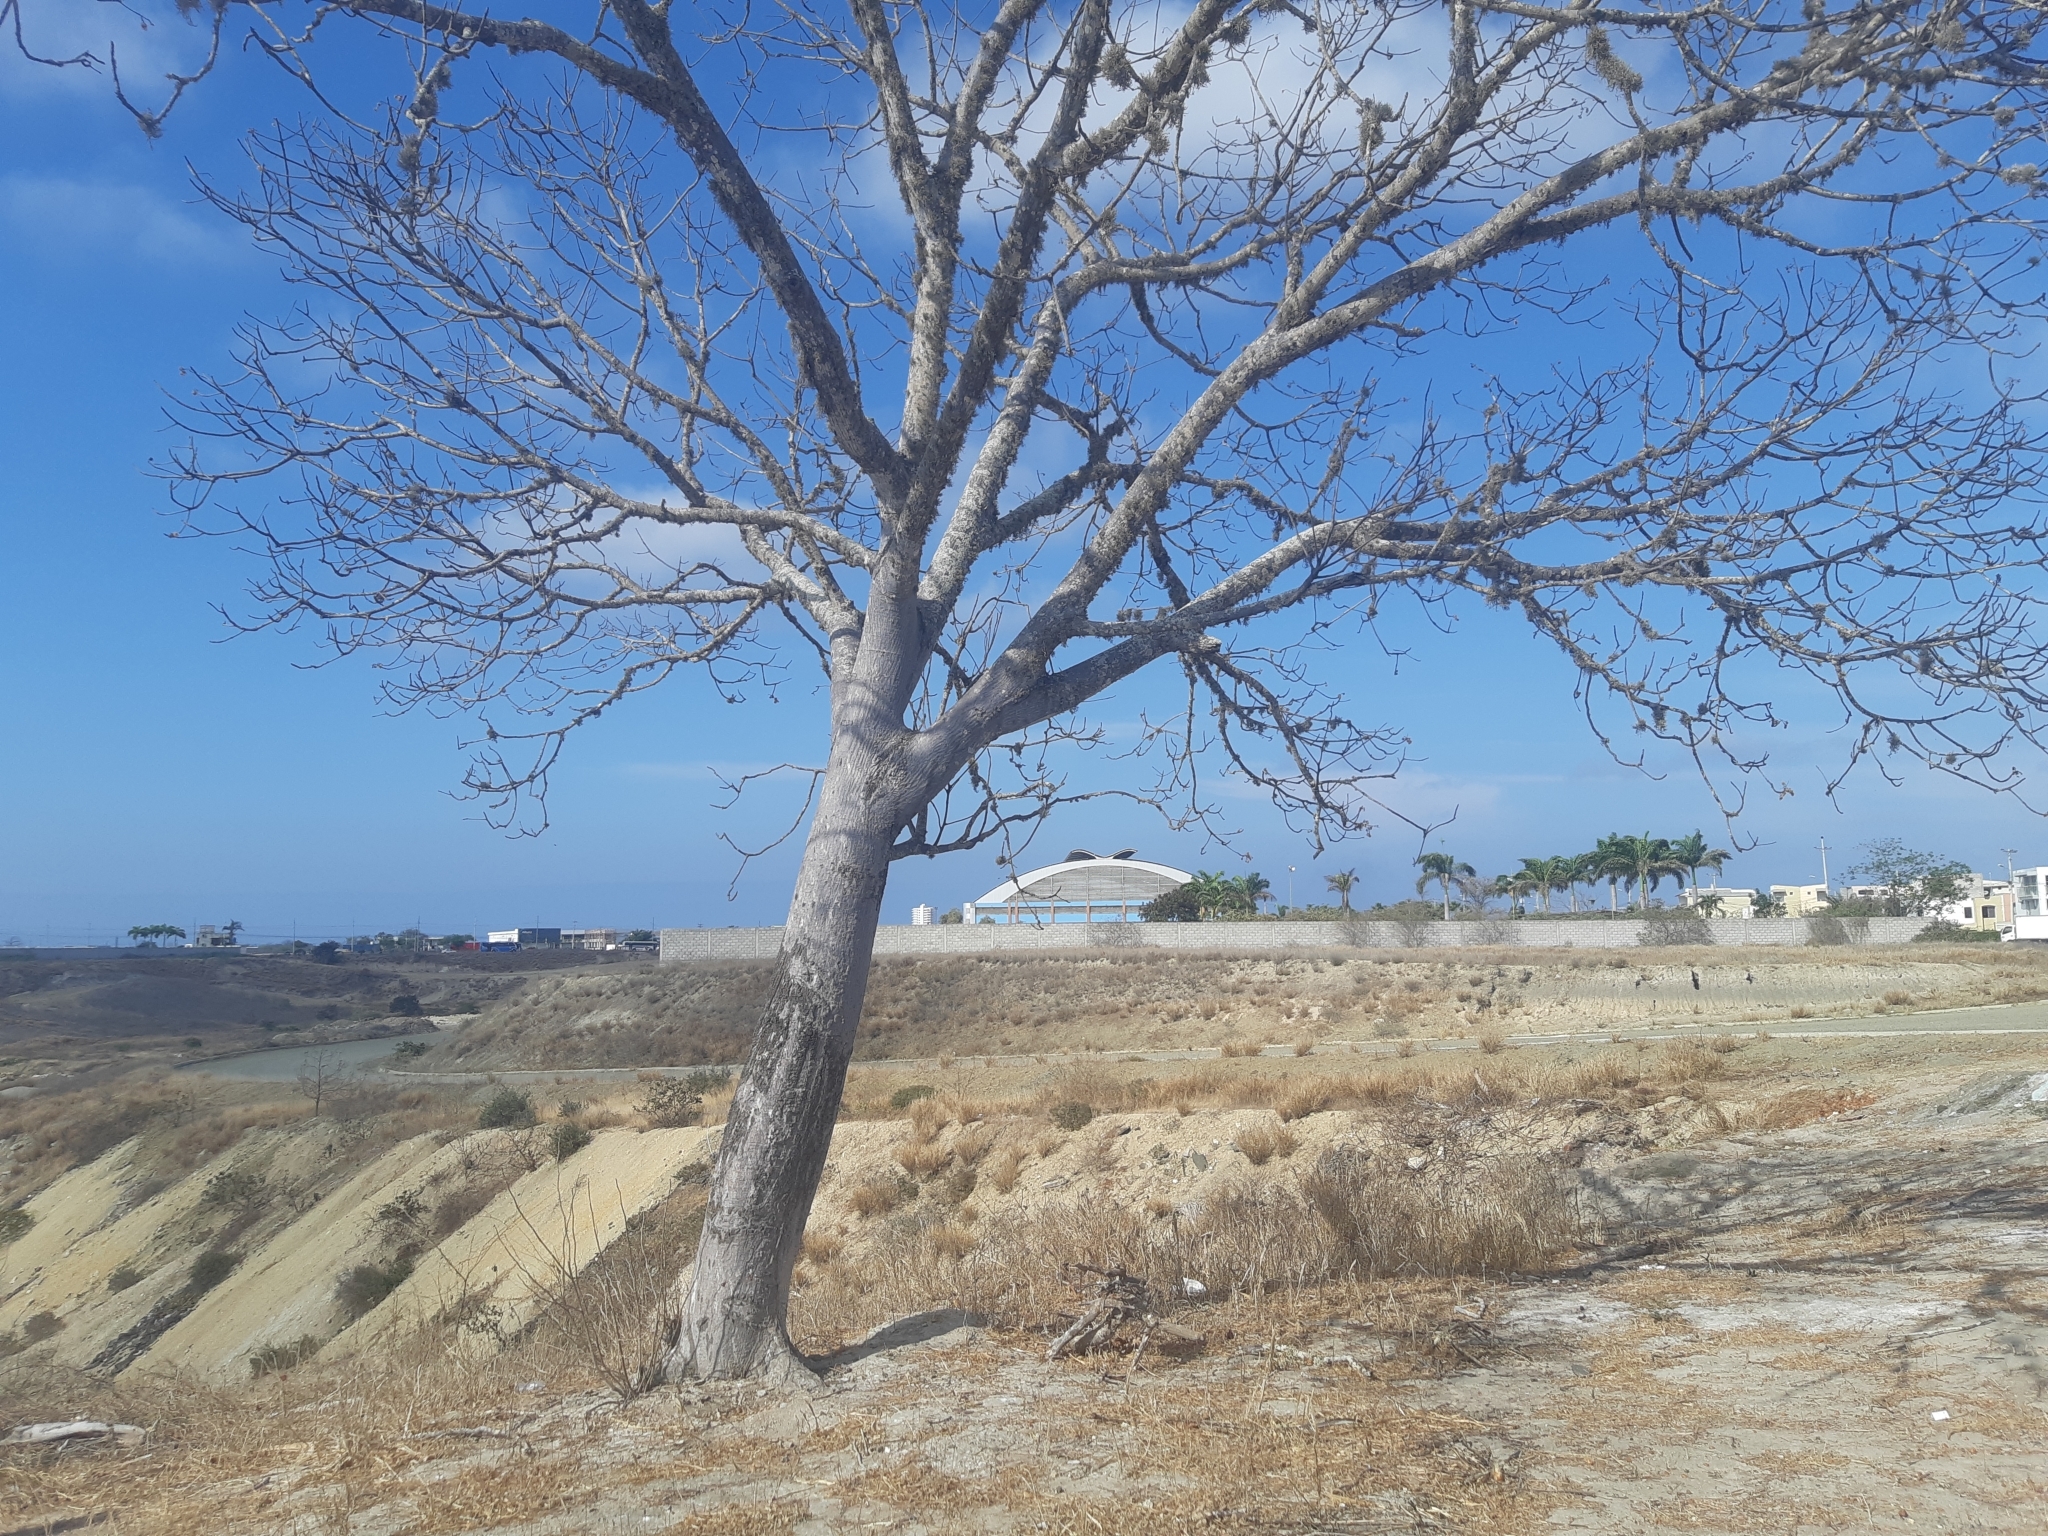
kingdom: Plantae
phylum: Tracheophyta
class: Magnoliopsida
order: Malvales
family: Malvaceae
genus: Eriotheca
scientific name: Eriotheca ruizii
